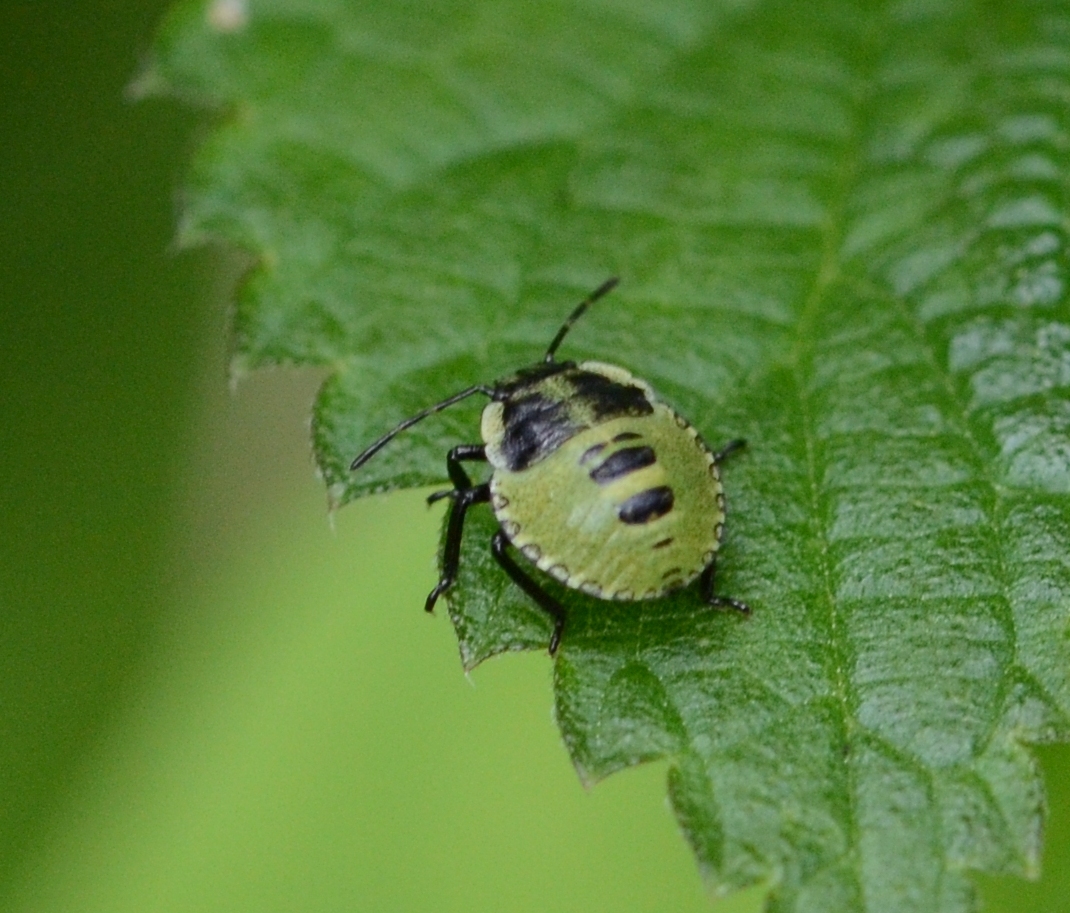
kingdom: Animalia
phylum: Arthropoda
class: Insecta
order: Hemiptera
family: Pentatomidae
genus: Palomena
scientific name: Palomena prasina
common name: Green shieldbug
